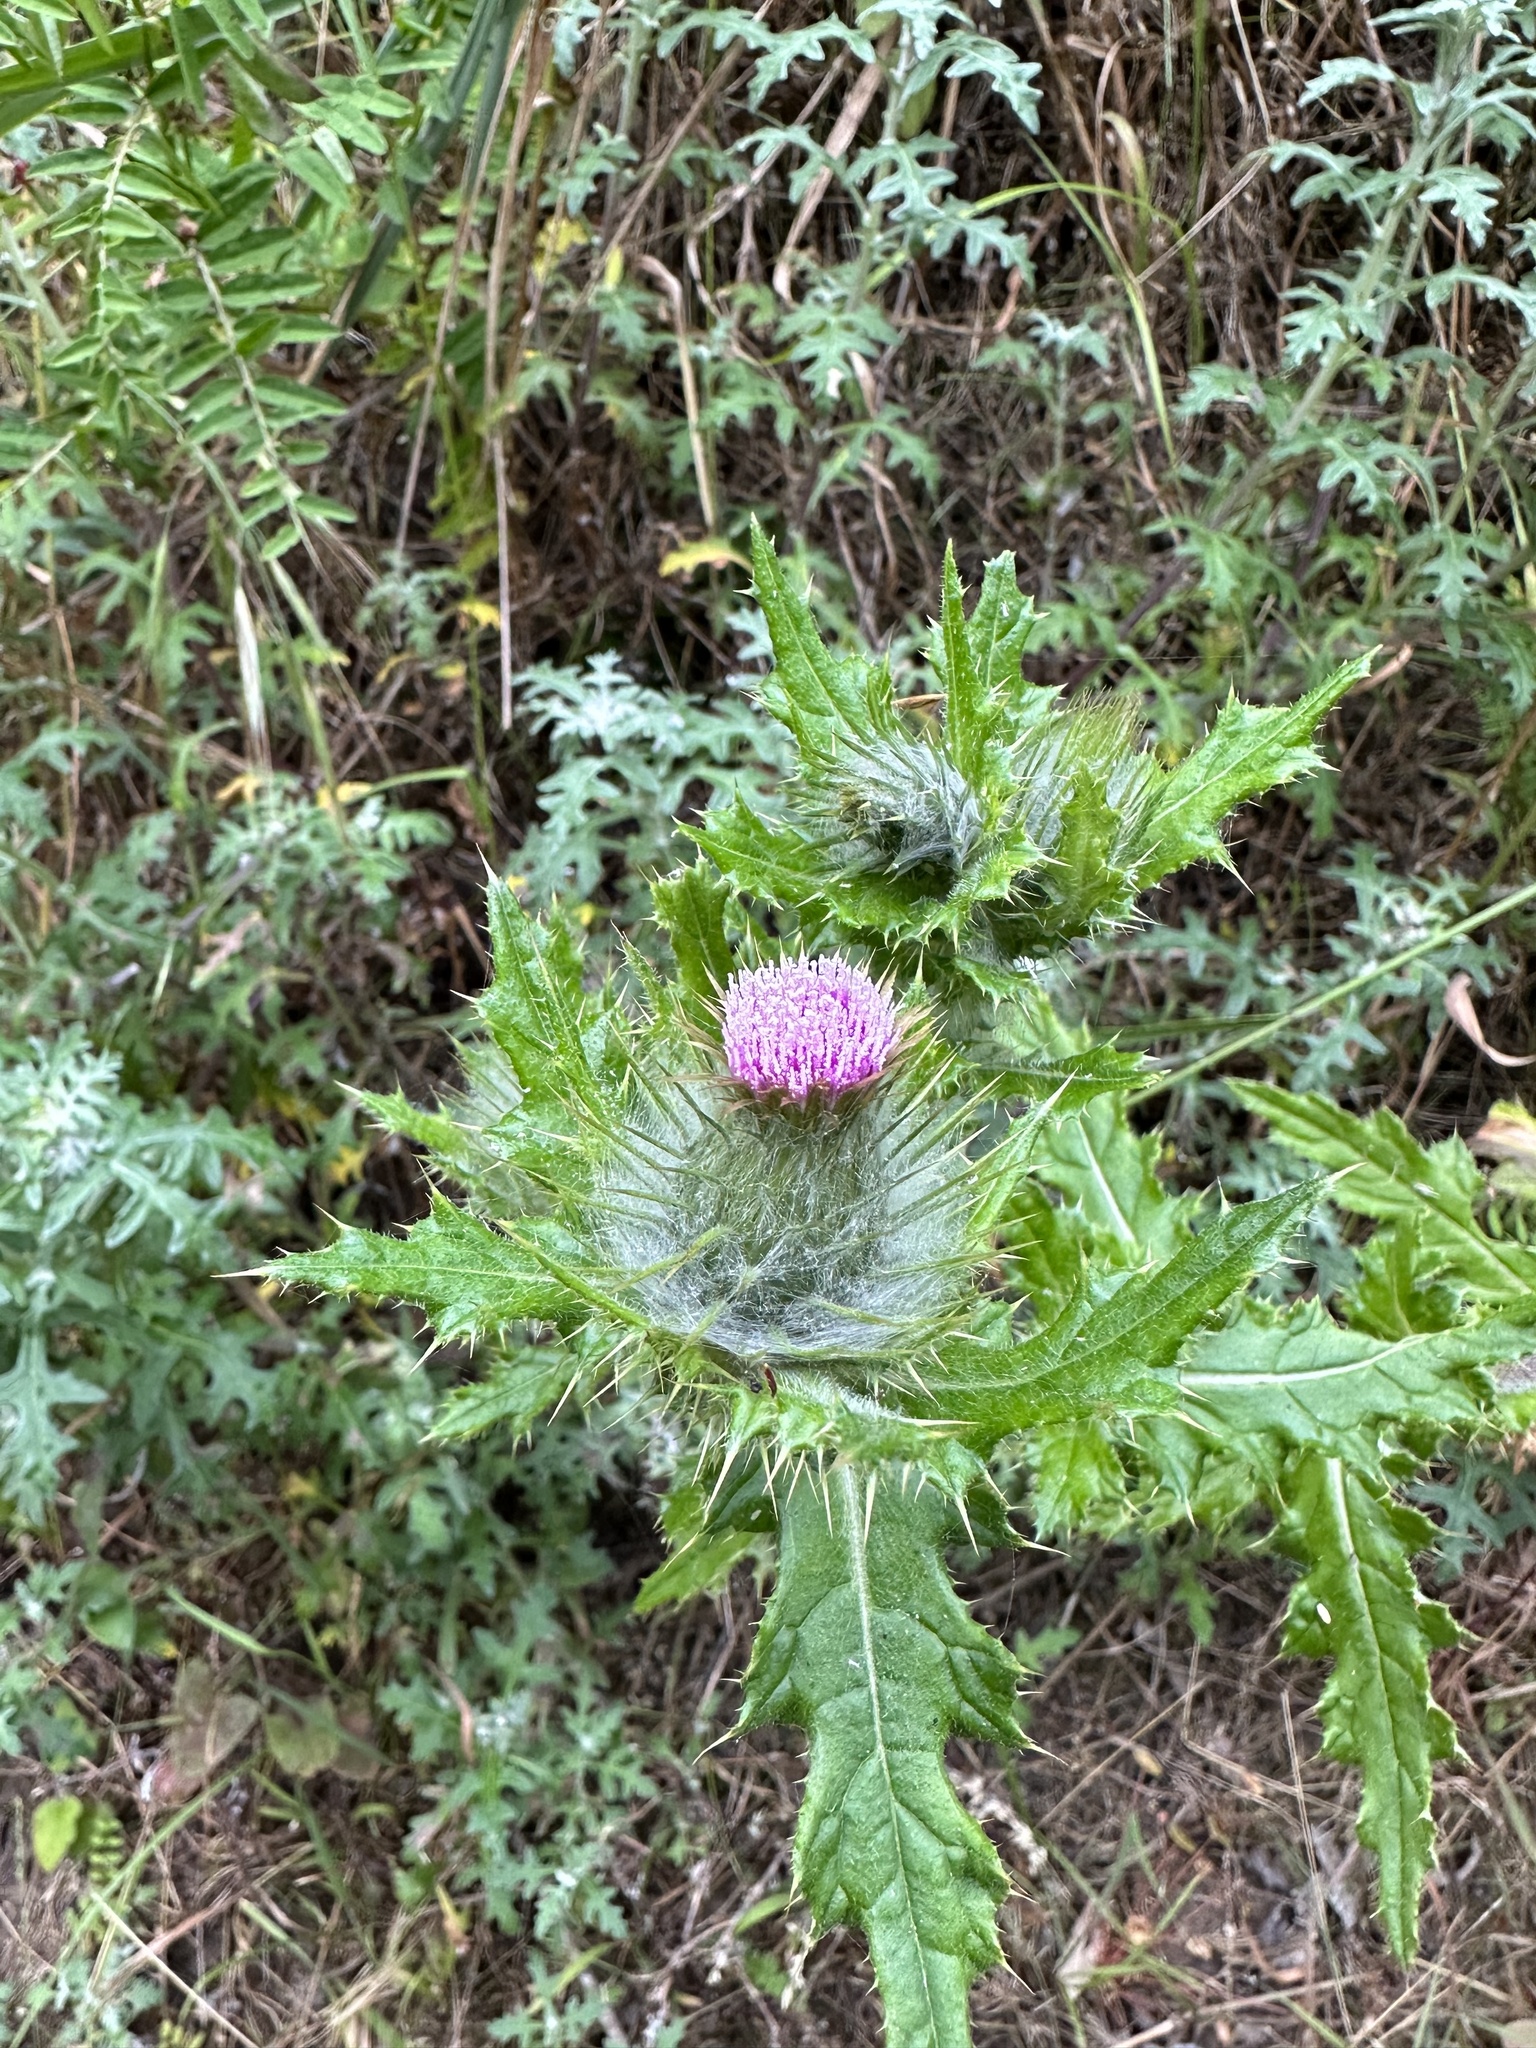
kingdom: Plantae
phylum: Tracheophyta
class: Magnoliopsida
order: Asterales
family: Asteraceae
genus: Cirsium
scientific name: Cirsium brevistylum
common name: Indian thistle
